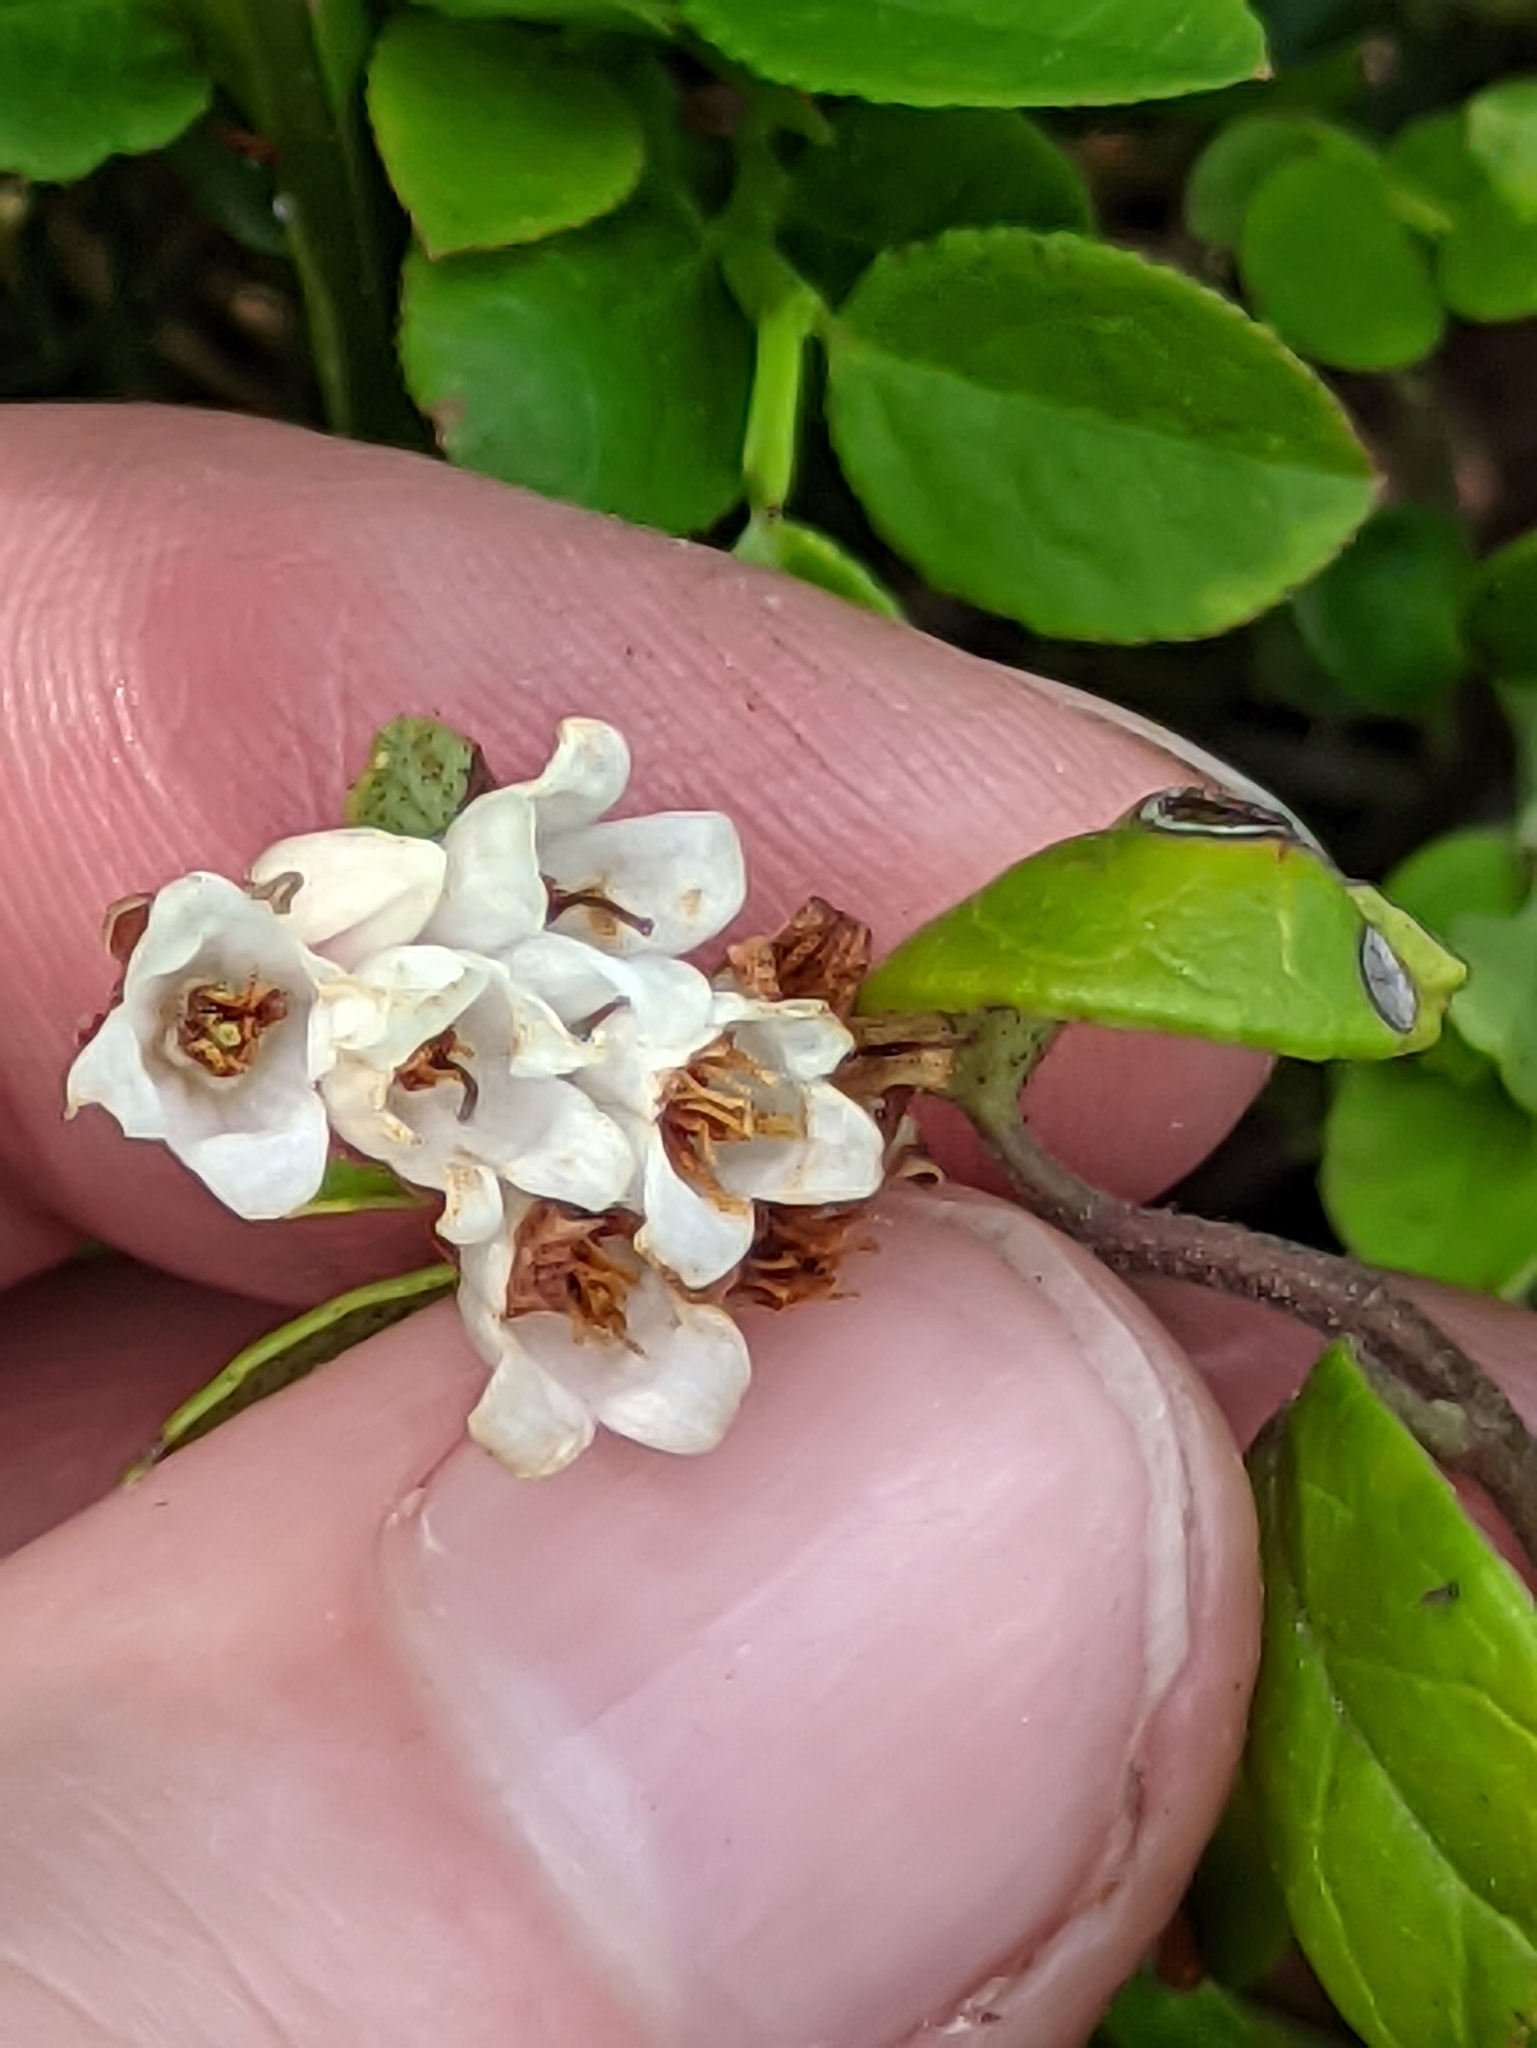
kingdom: Plantae
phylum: Tracheophyta
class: Magnoliopsida
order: Ericales
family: Ericaceae
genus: Vaccinium
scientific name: Vaccinium vitis-idaea
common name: Cowberry
